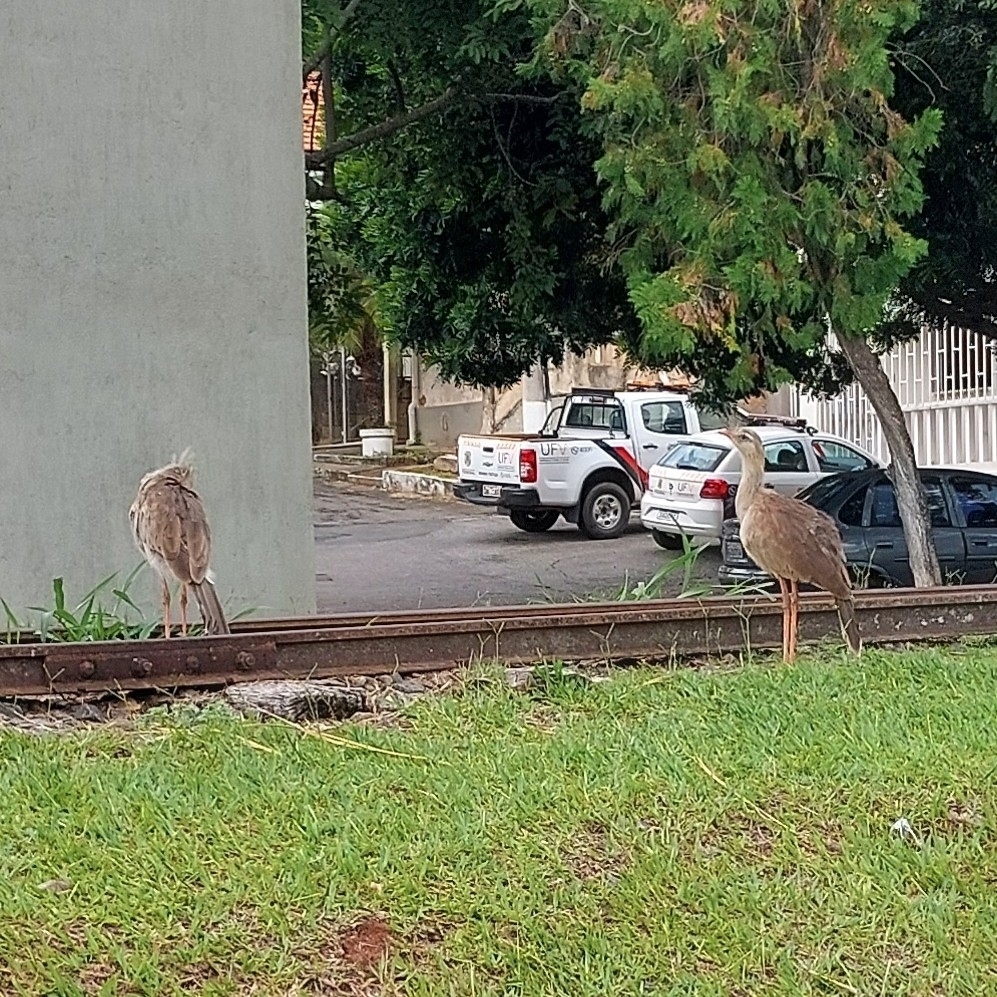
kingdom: Animalia
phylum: Chordata
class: Aves
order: Cariamiformes
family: Cariamidae
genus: Cariama
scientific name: Cariama cristata
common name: Red-legged seriema
